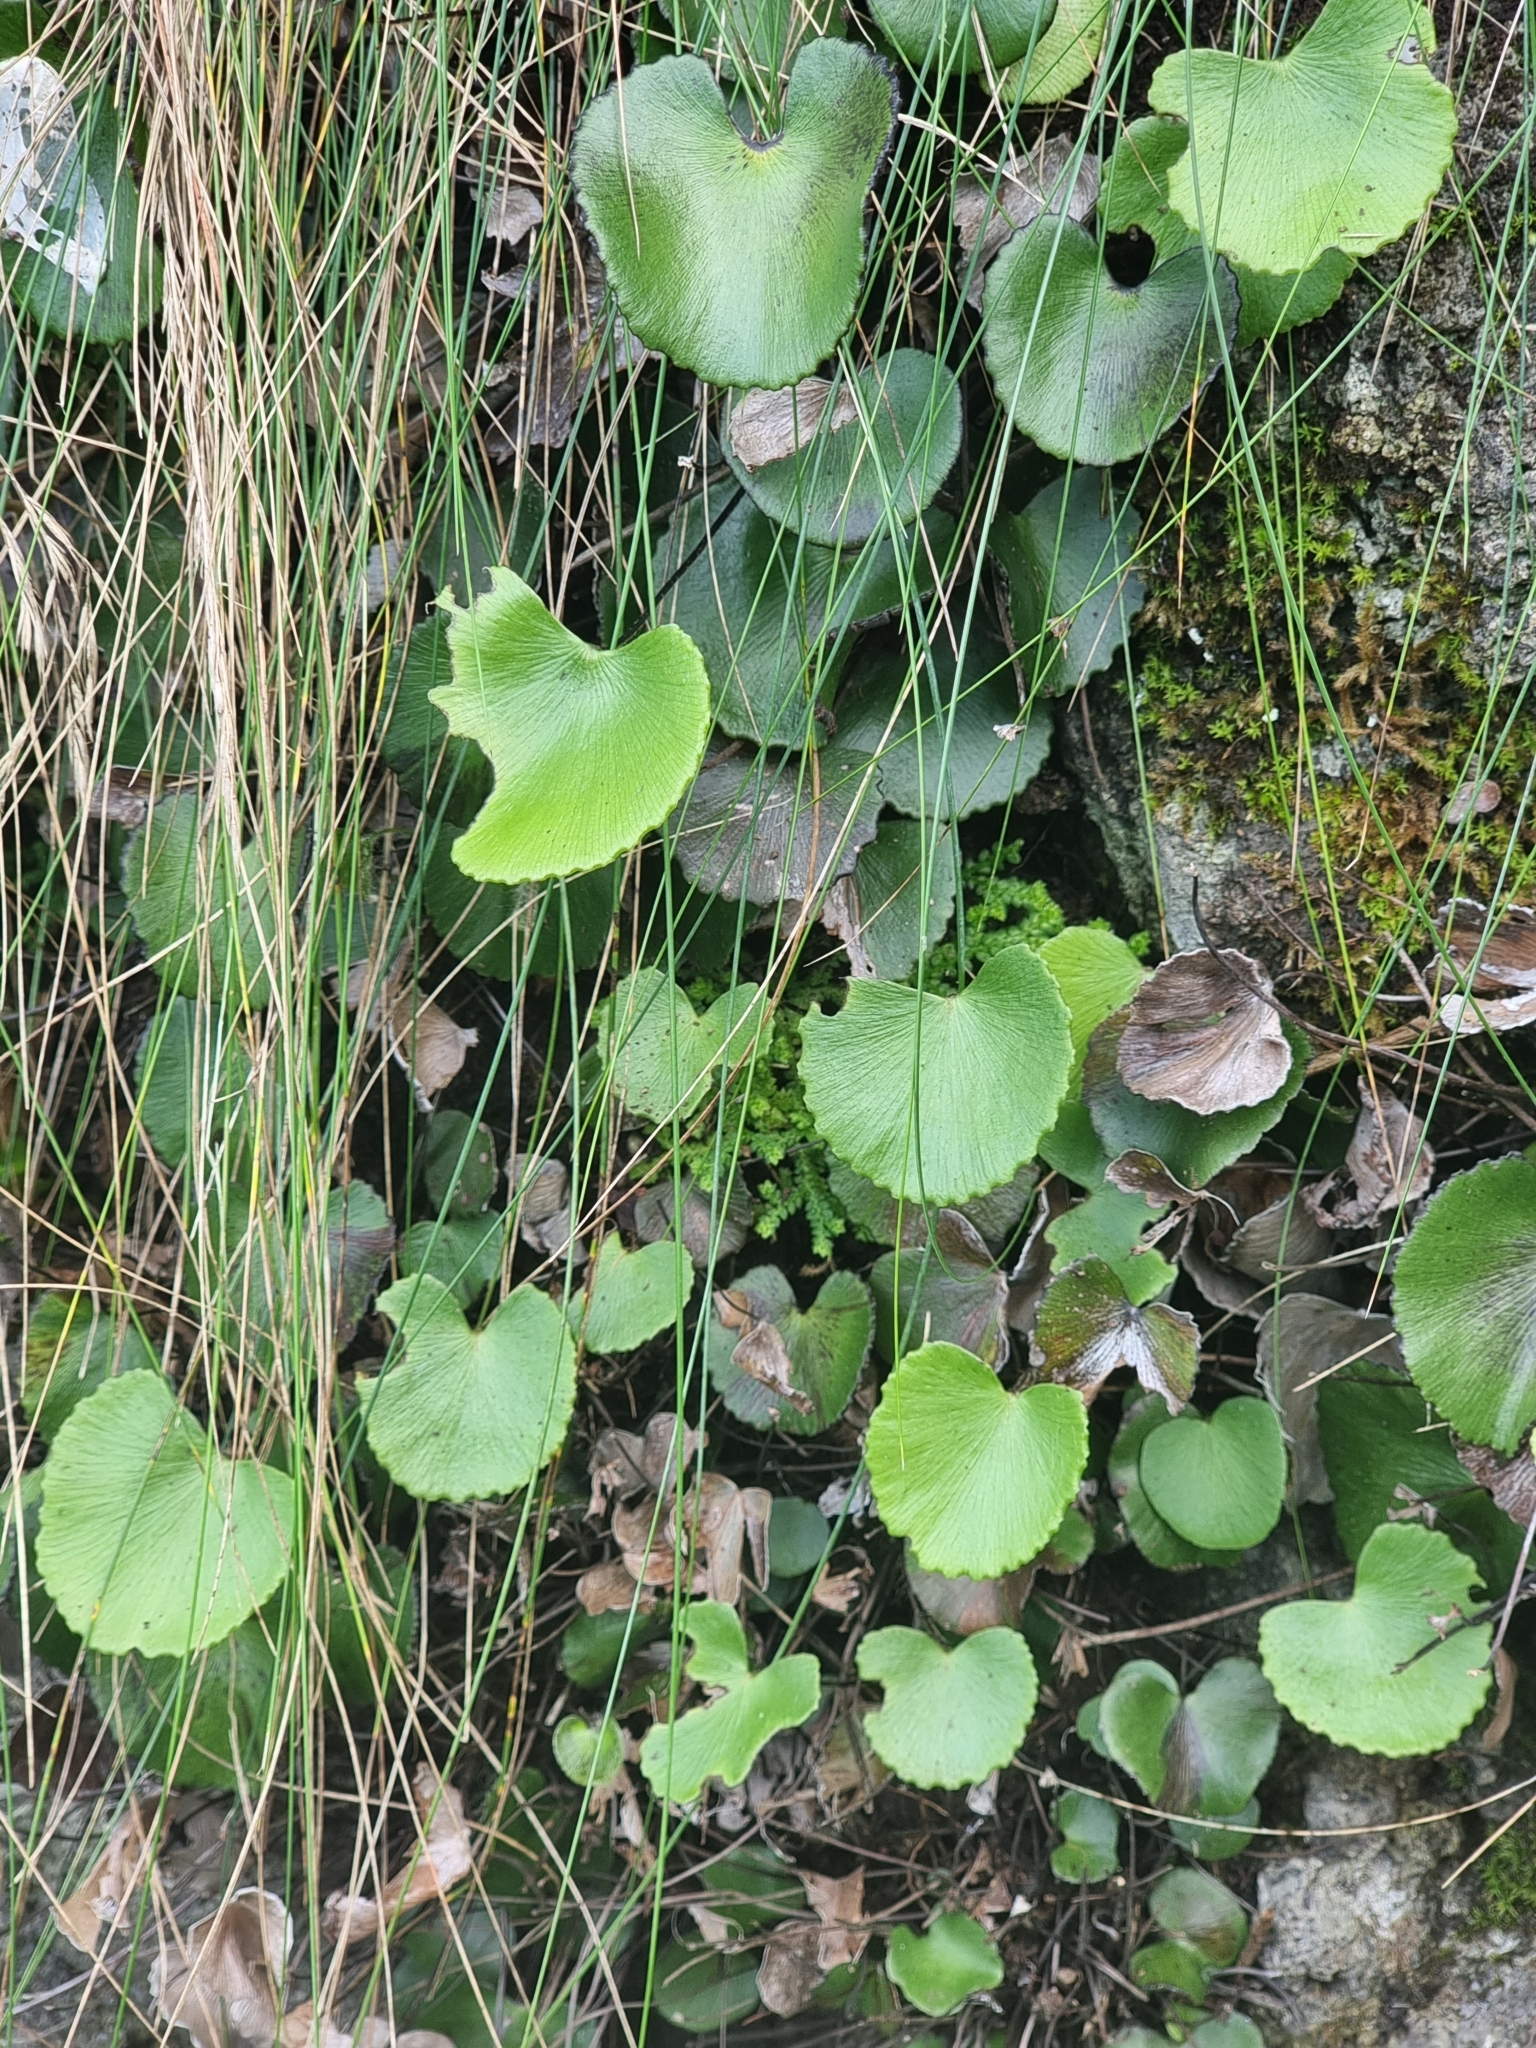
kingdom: Plantae
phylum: Tracheophyta
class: Polypodiopsida
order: Polypodiales
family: Pteridaceae
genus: Adiantum
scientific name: Adiantum reniforme
